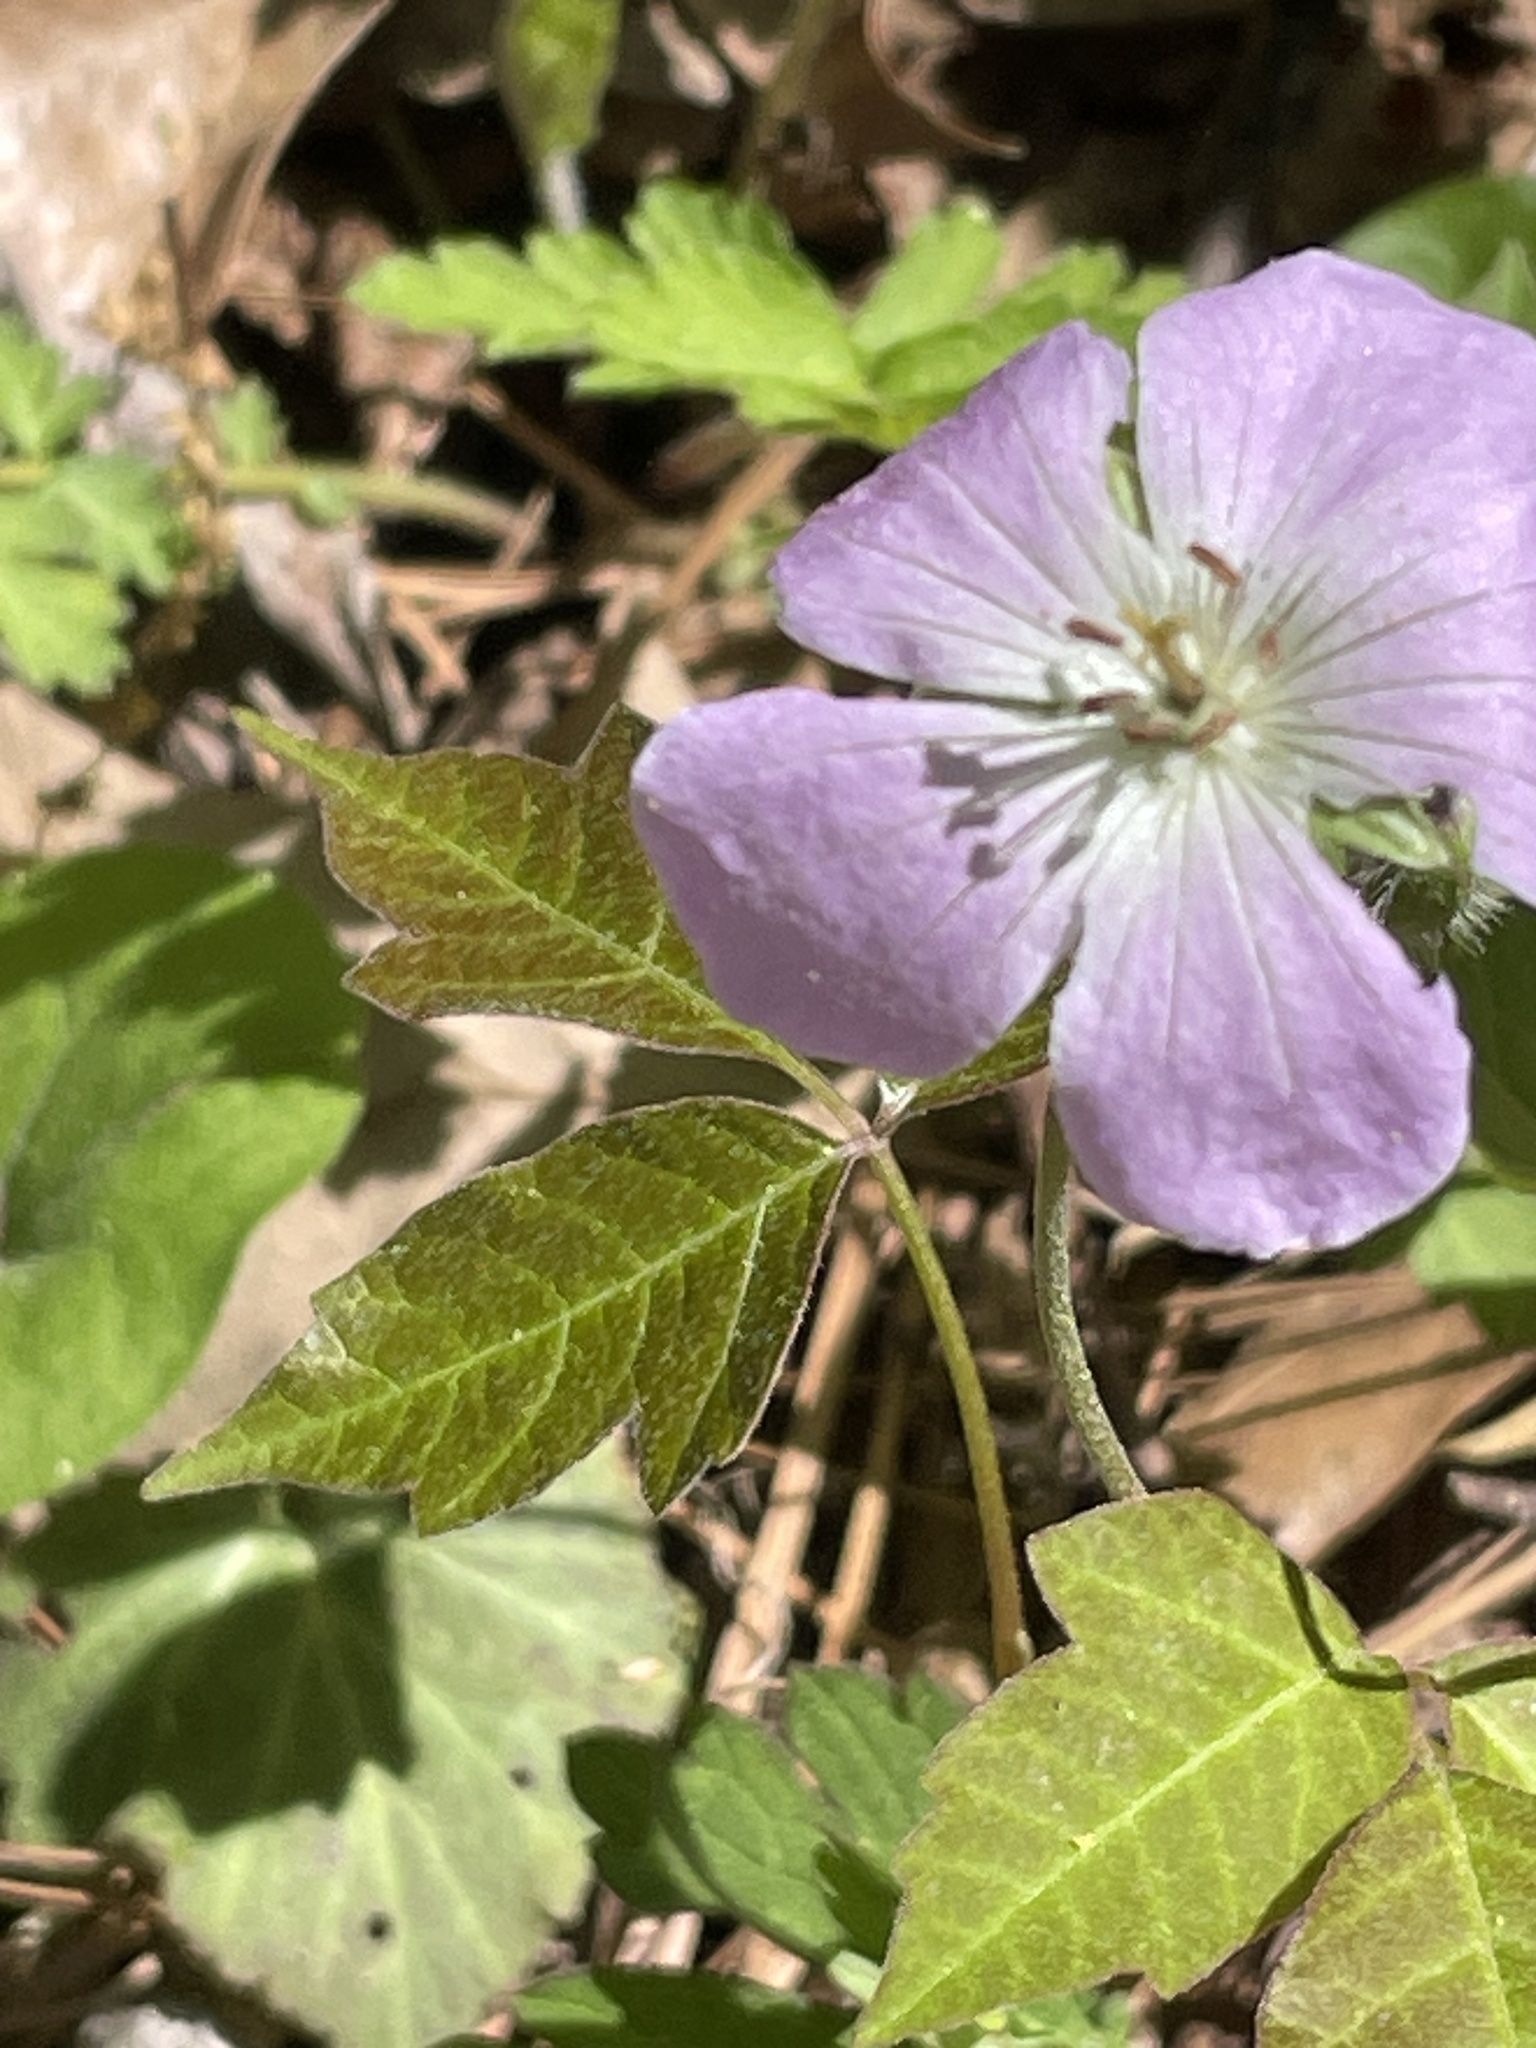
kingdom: Plantae
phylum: Tracheophyta
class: Magnoliopsida
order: Geraniales
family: Geraniaceae
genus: Geranium
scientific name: Geranium maculatum
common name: Spotted geranium
